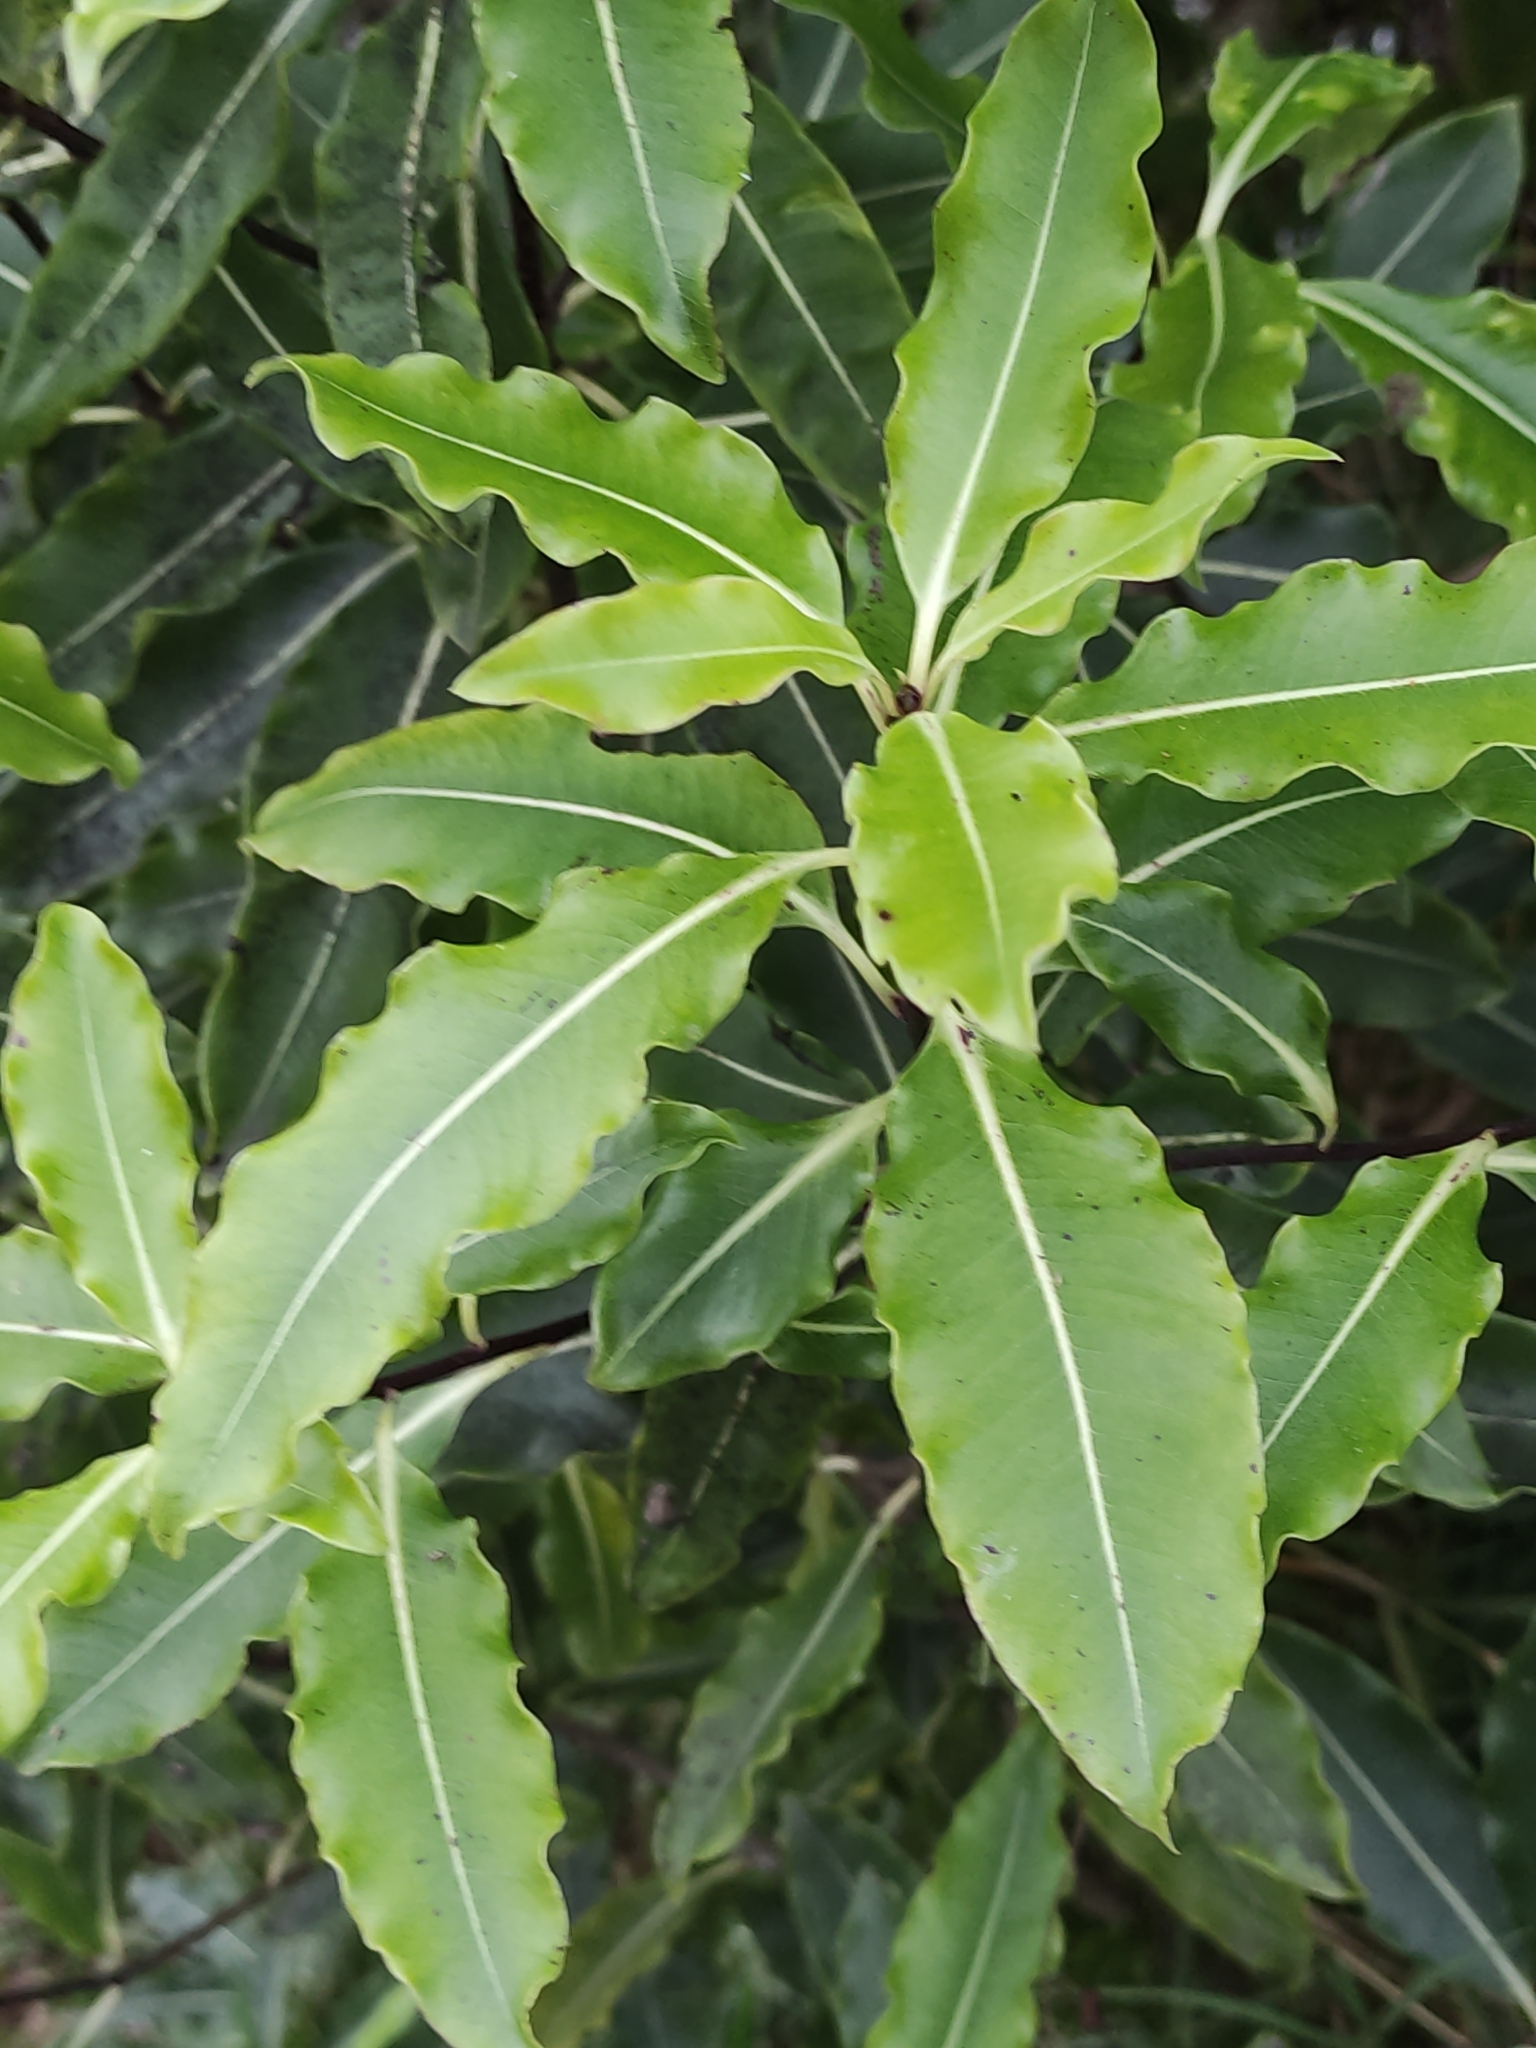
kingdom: Plantae
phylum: Tracheophyta
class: Magnoliopsida
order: Apiales
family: Pittosporaceae
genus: Pittosporum
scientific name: Pittosporum eugenioides
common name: Lemonwood
